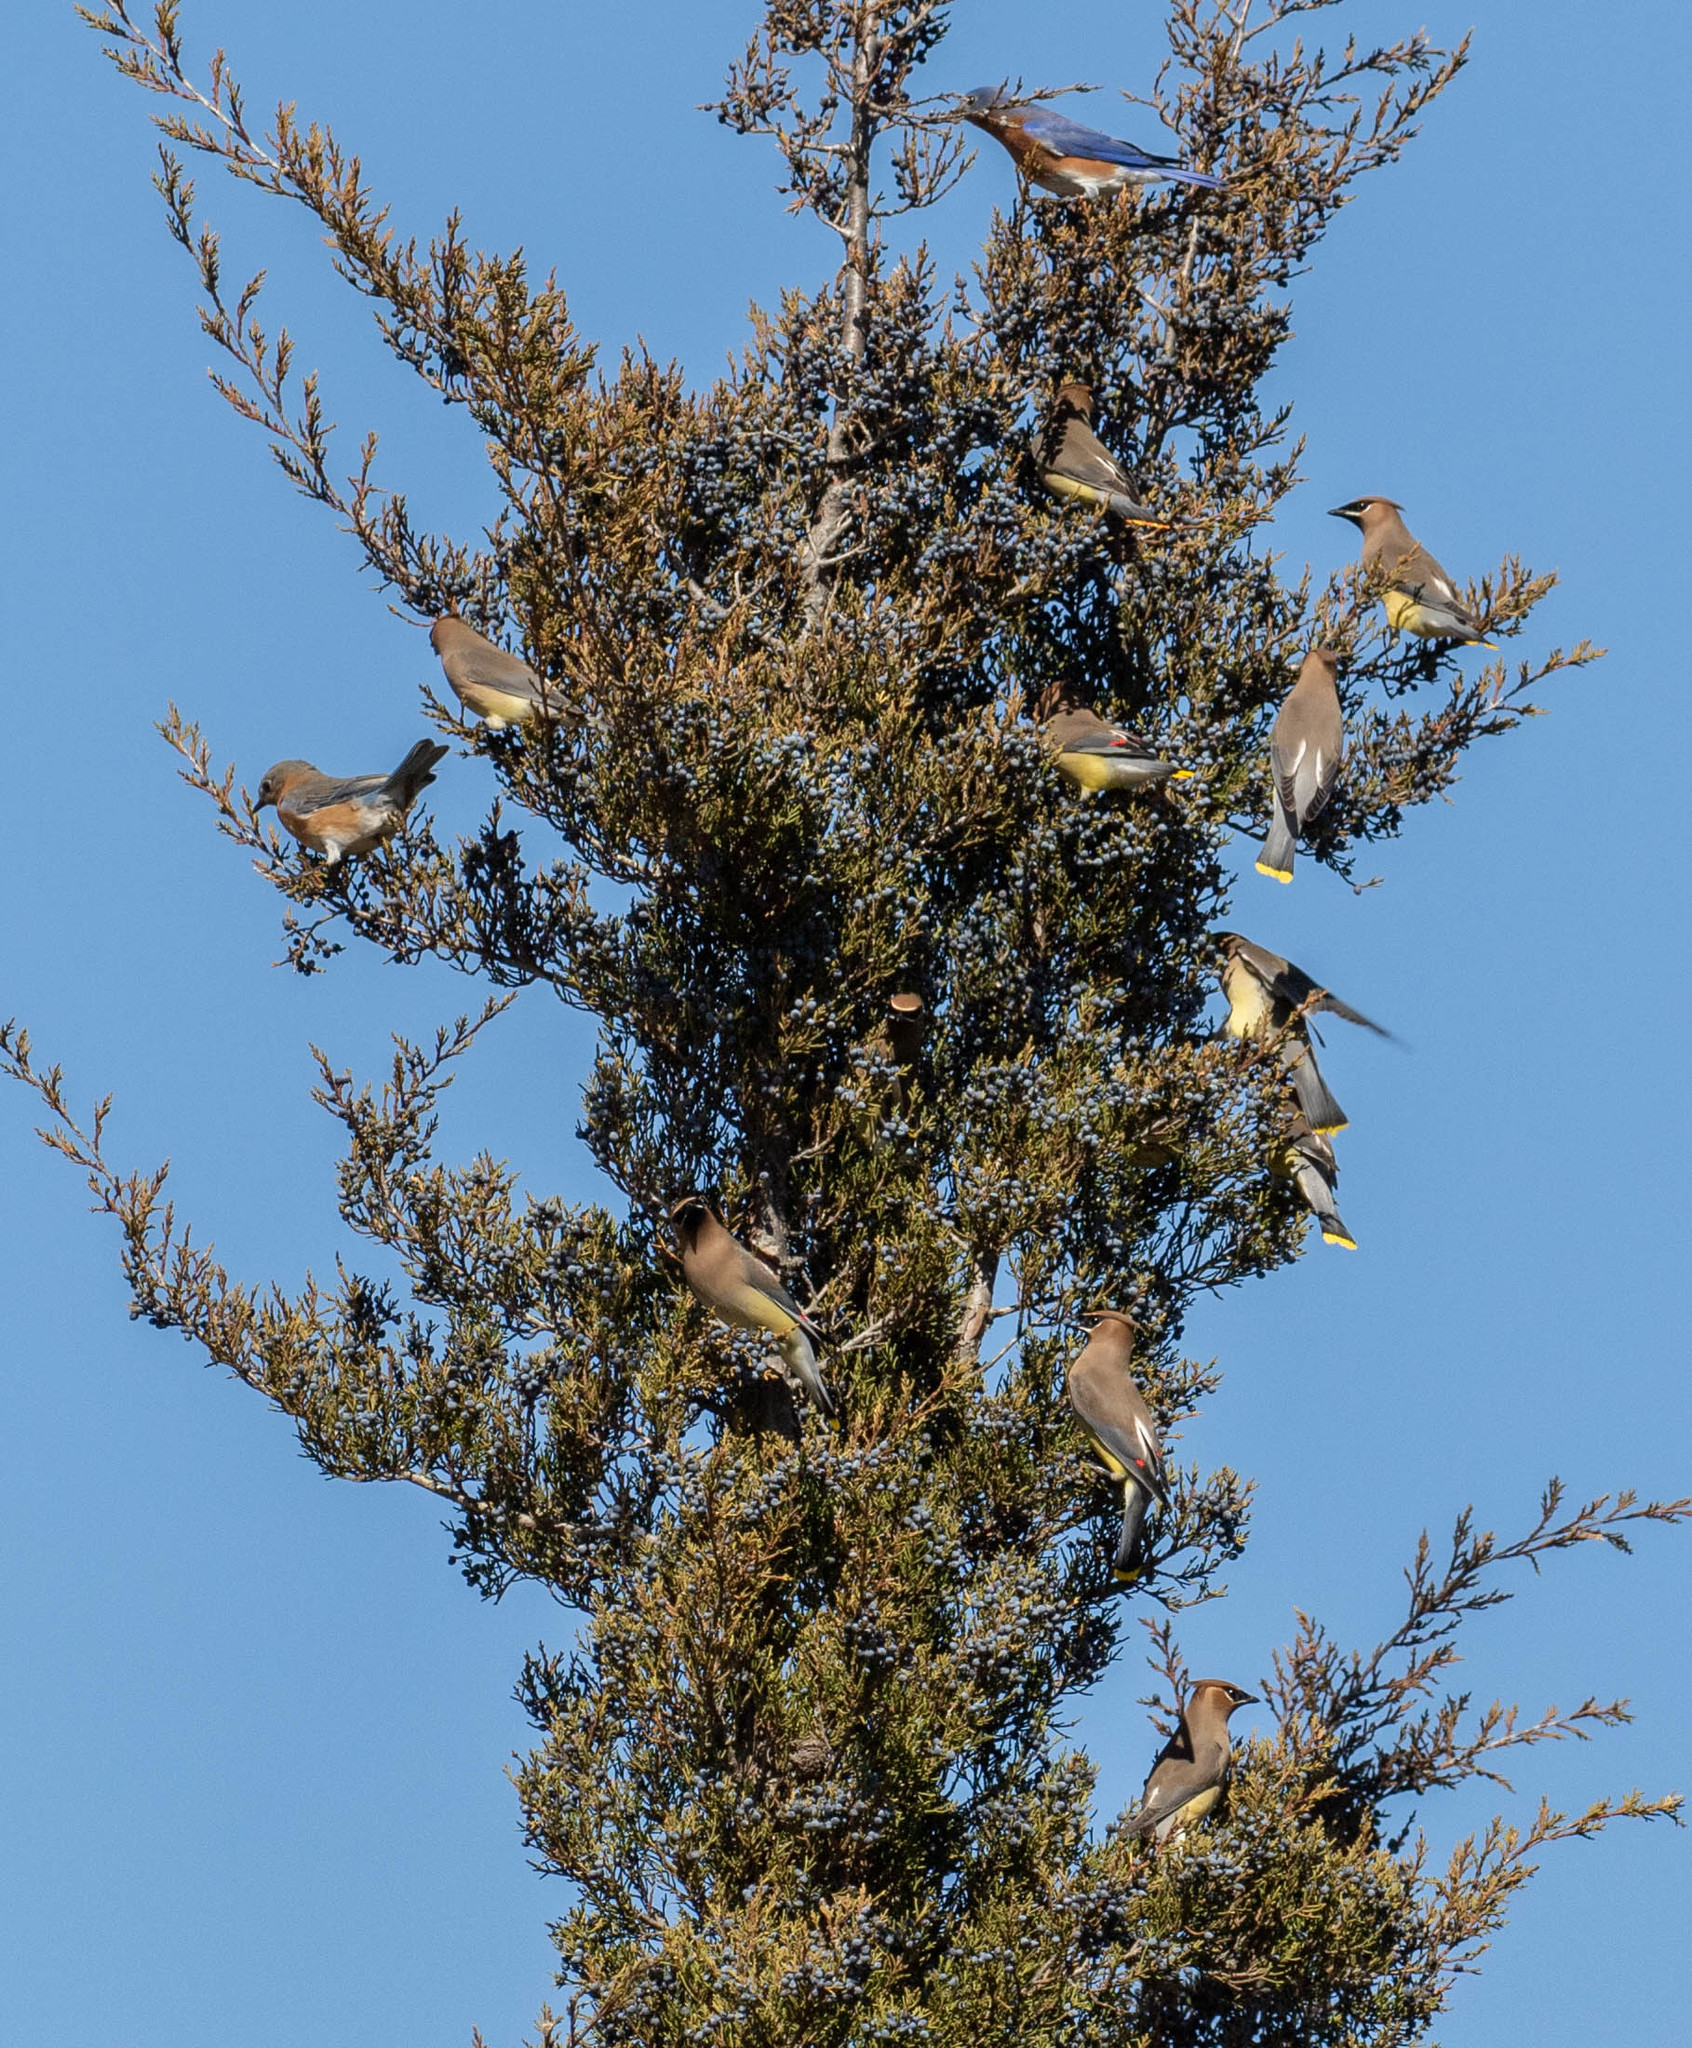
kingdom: Animalia
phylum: Chordata
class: Aves
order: Passeriformes
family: Bombycillidae
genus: Bombycilla
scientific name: Bombycilla cedrorum
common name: Cedar waxwing
